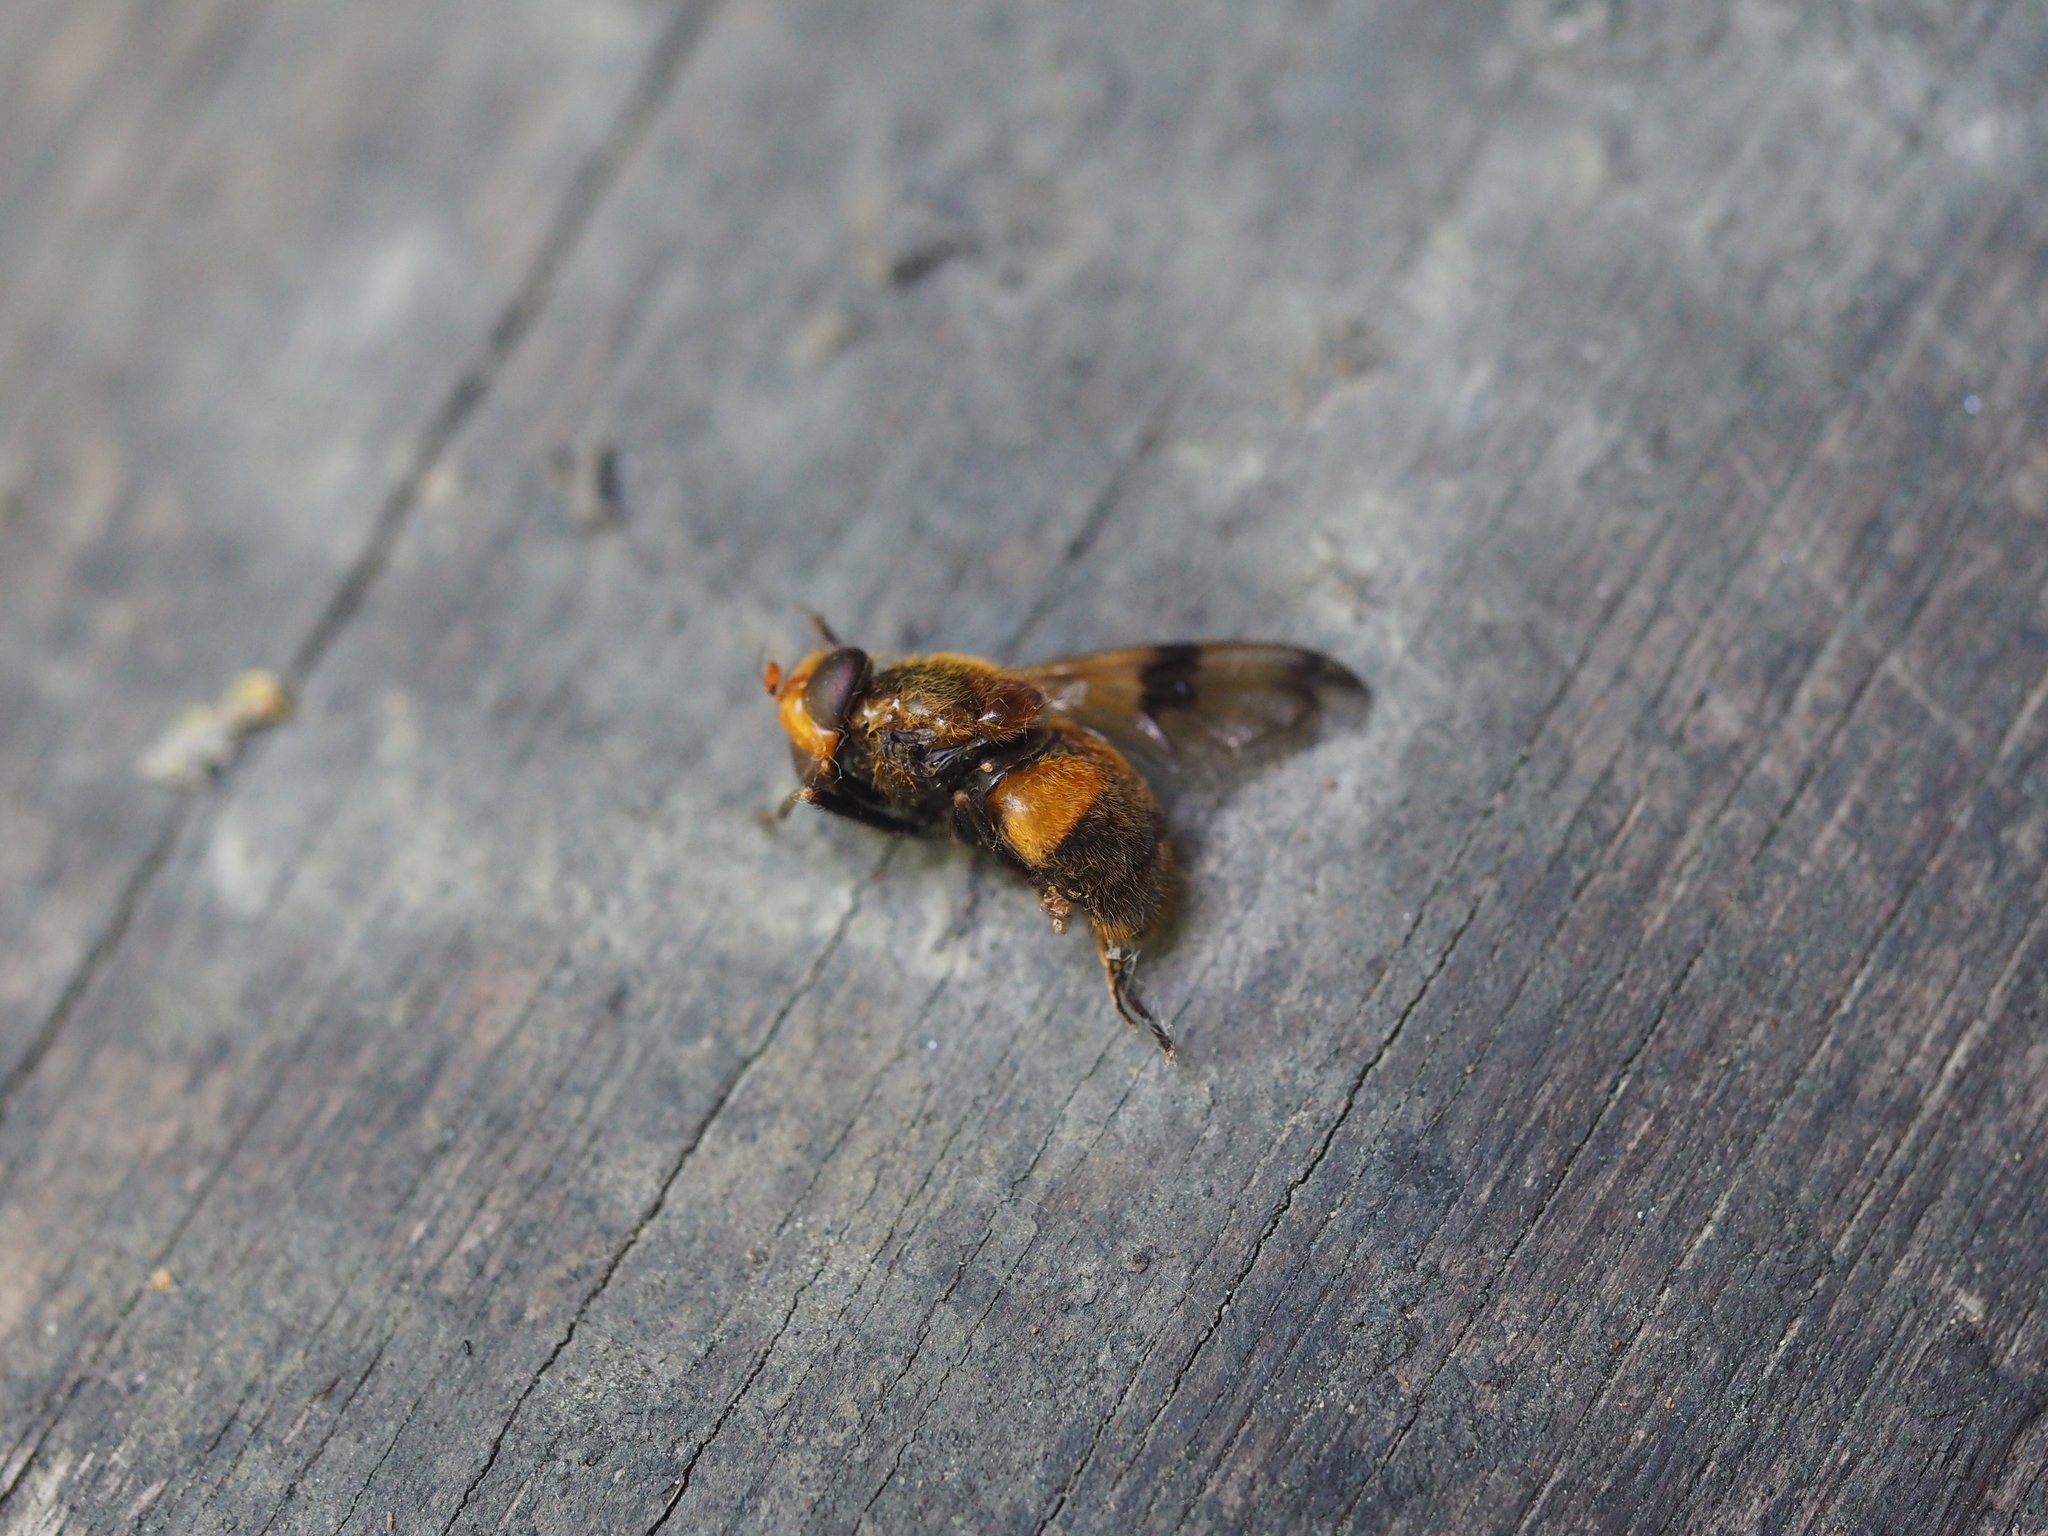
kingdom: Animalia
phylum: Arthropoda
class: Insecta
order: Diptera
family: Syrphidae
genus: Volucella
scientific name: Volucella inflata
